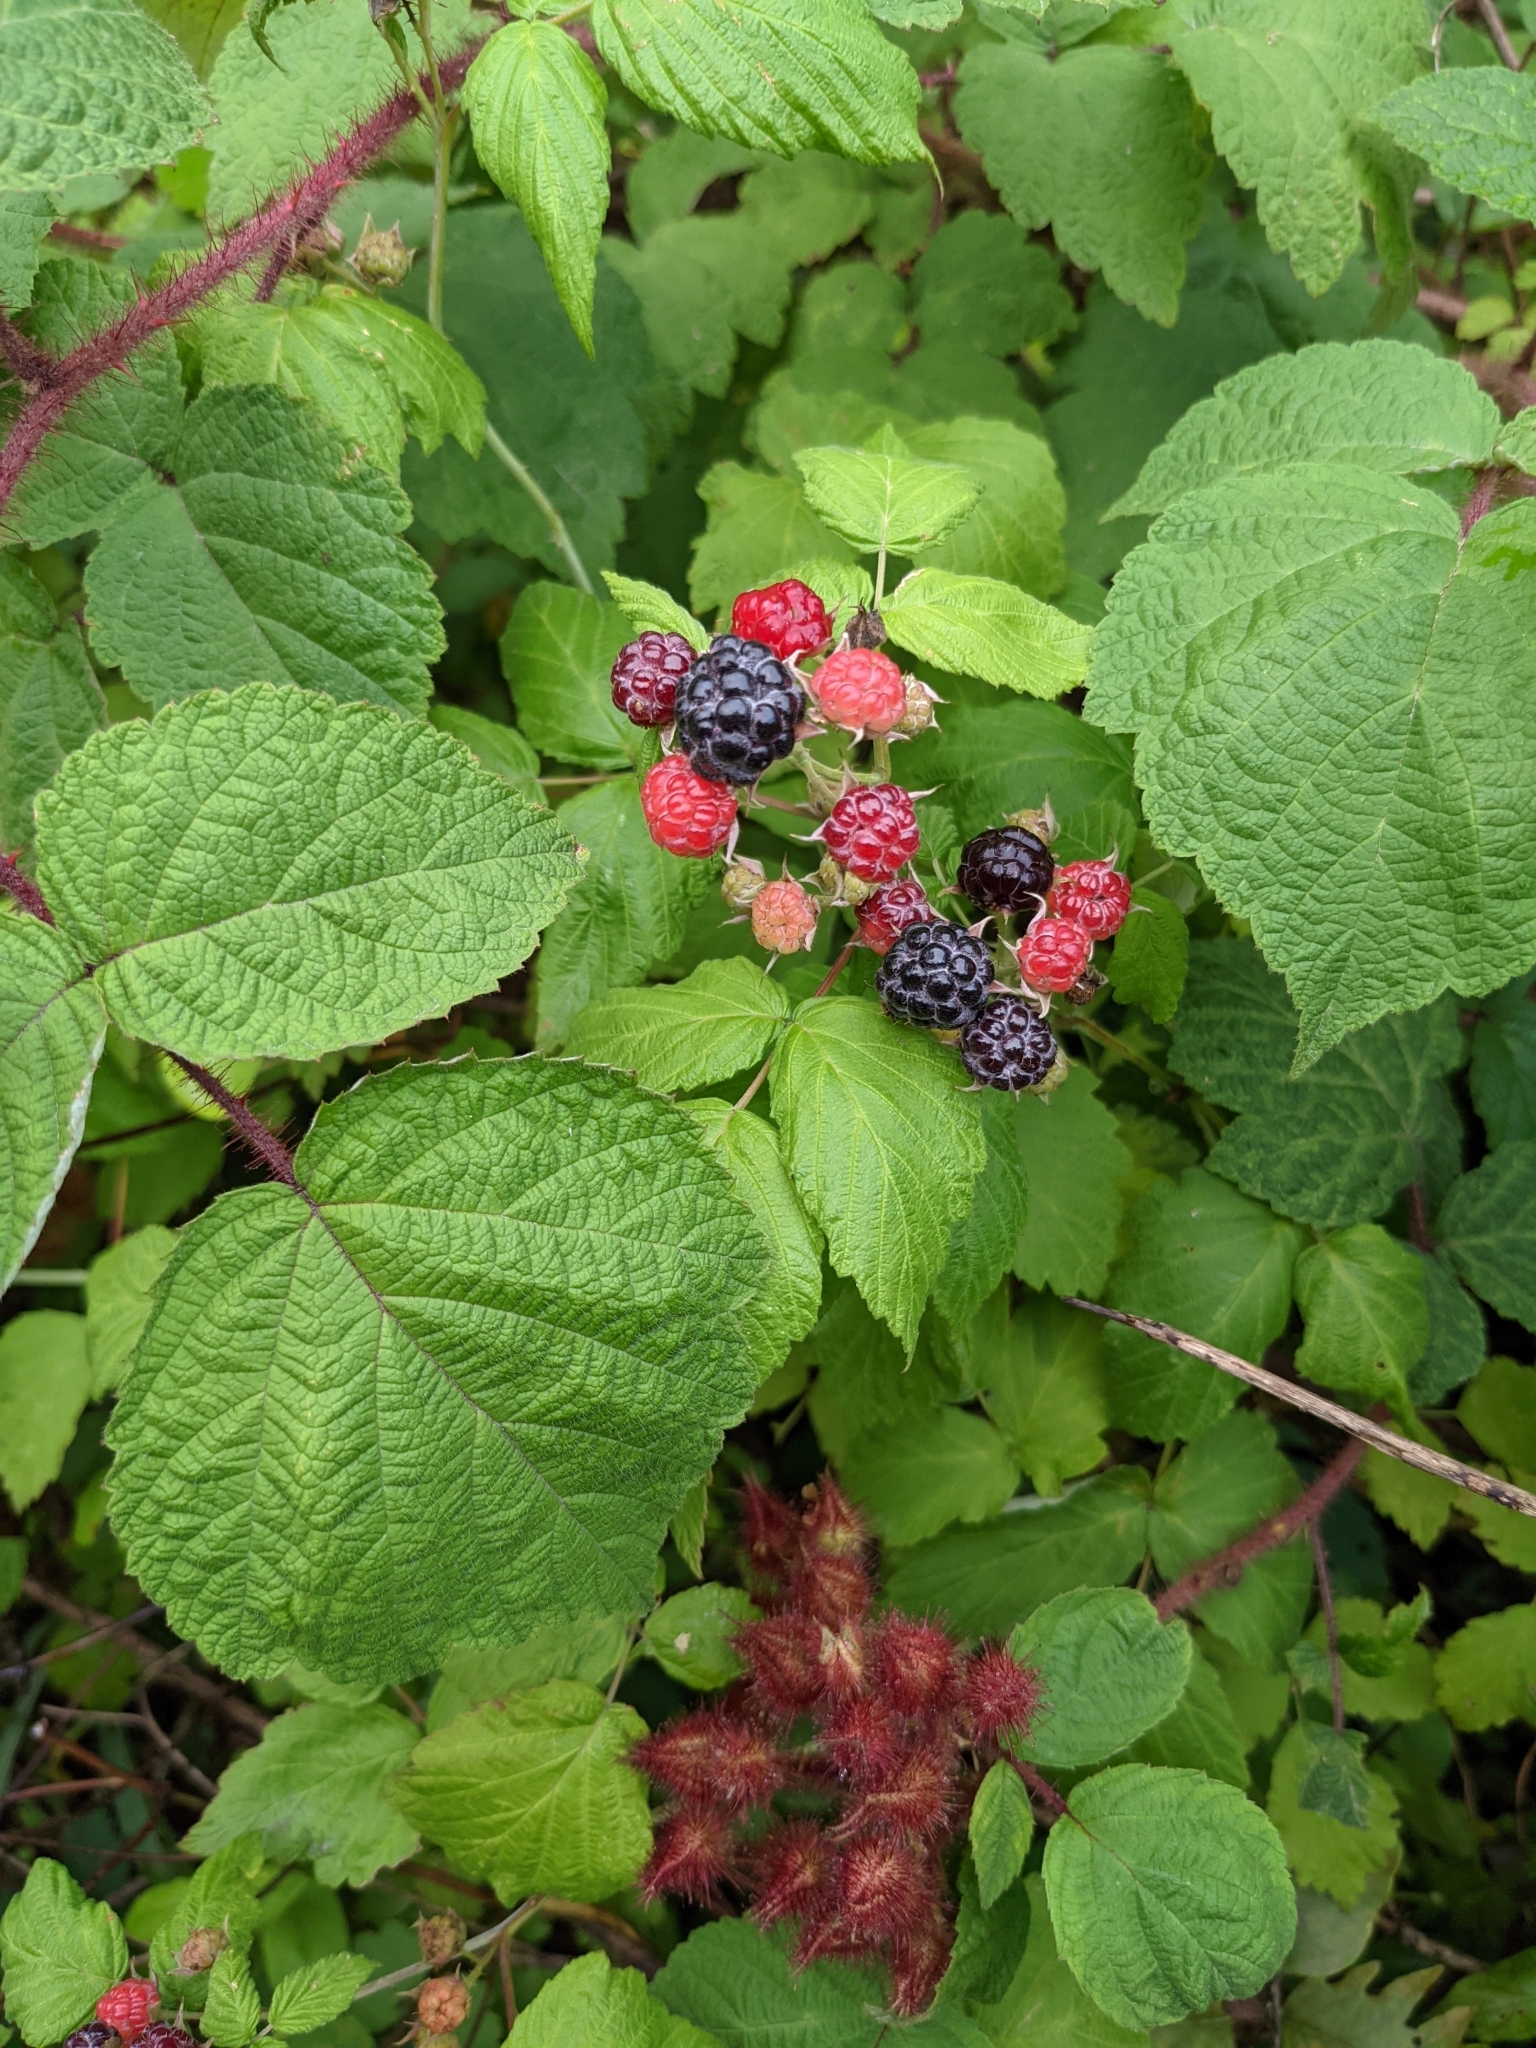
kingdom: Plantae
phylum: Tracheophyta
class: Magnoliopsida
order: Rosales
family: Rosaceae
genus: Rubus
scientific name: Rubus occidentalis
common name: Black raspberry
